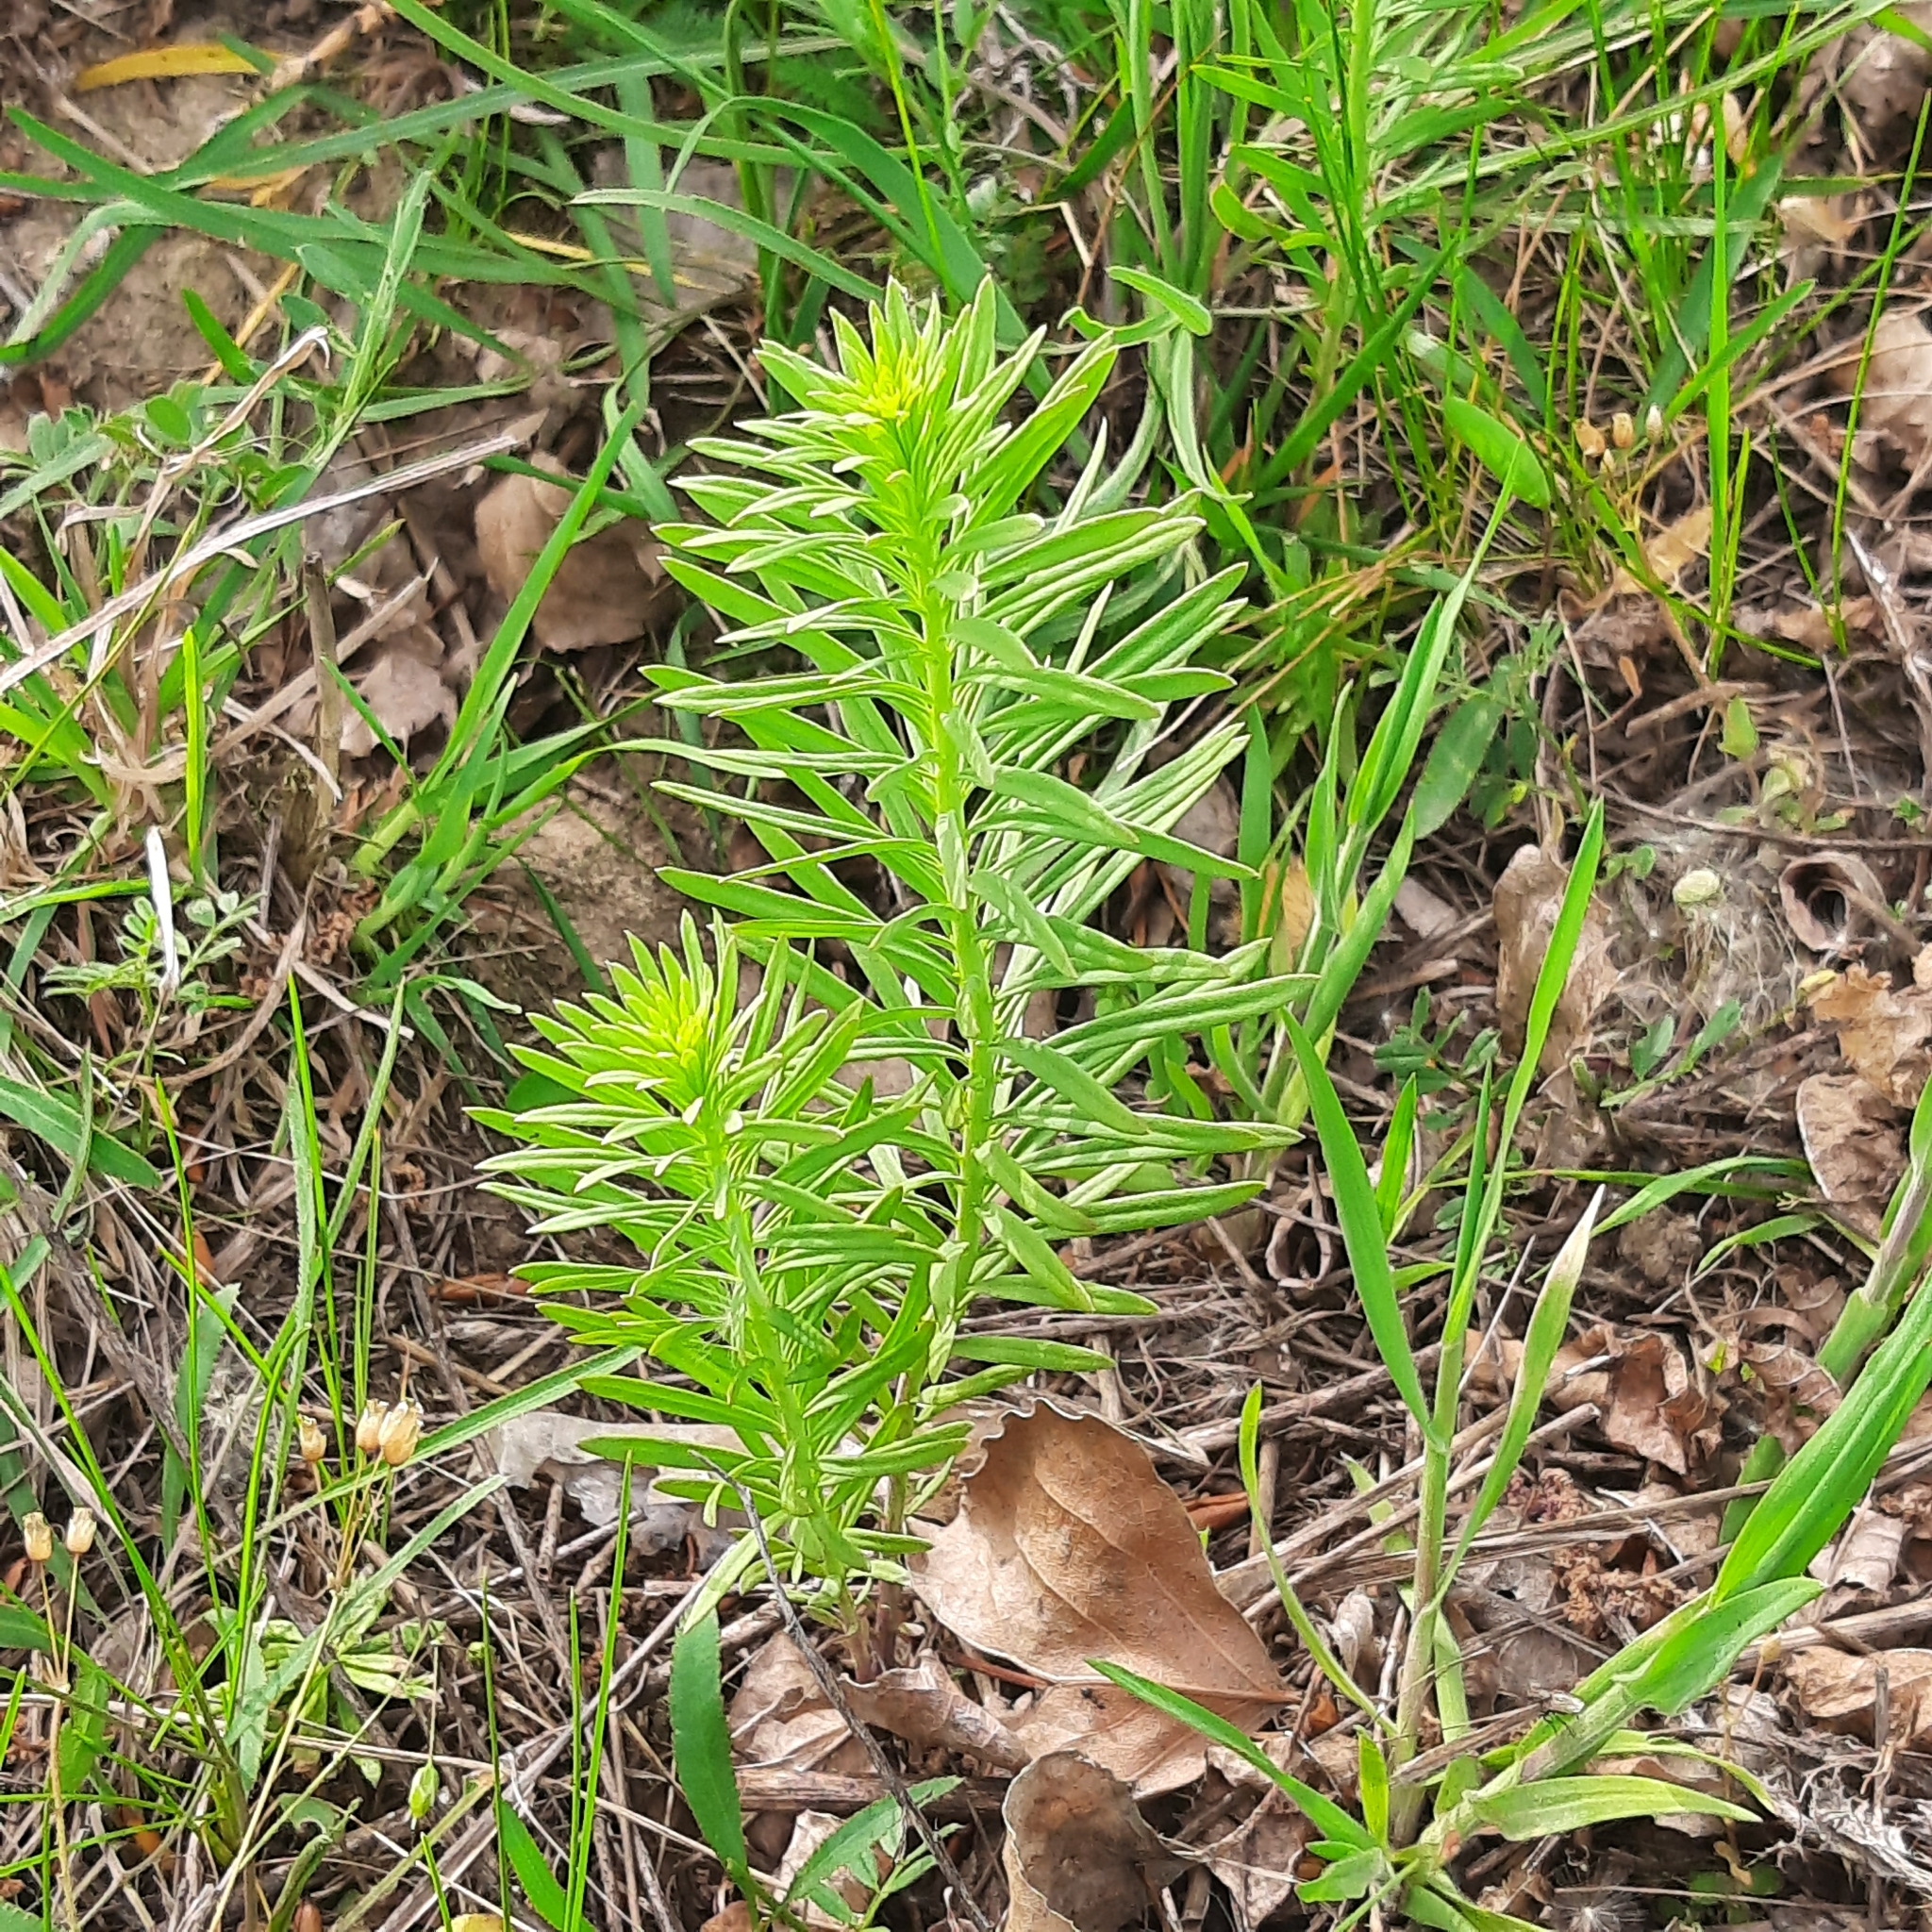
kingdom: Plantae
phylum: Tracheophyta
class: Magnoliopsida
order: Lamiales
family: Plantaginaceae
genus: Linaria
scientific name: Linaria vulgaris
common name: Butter and eggs
